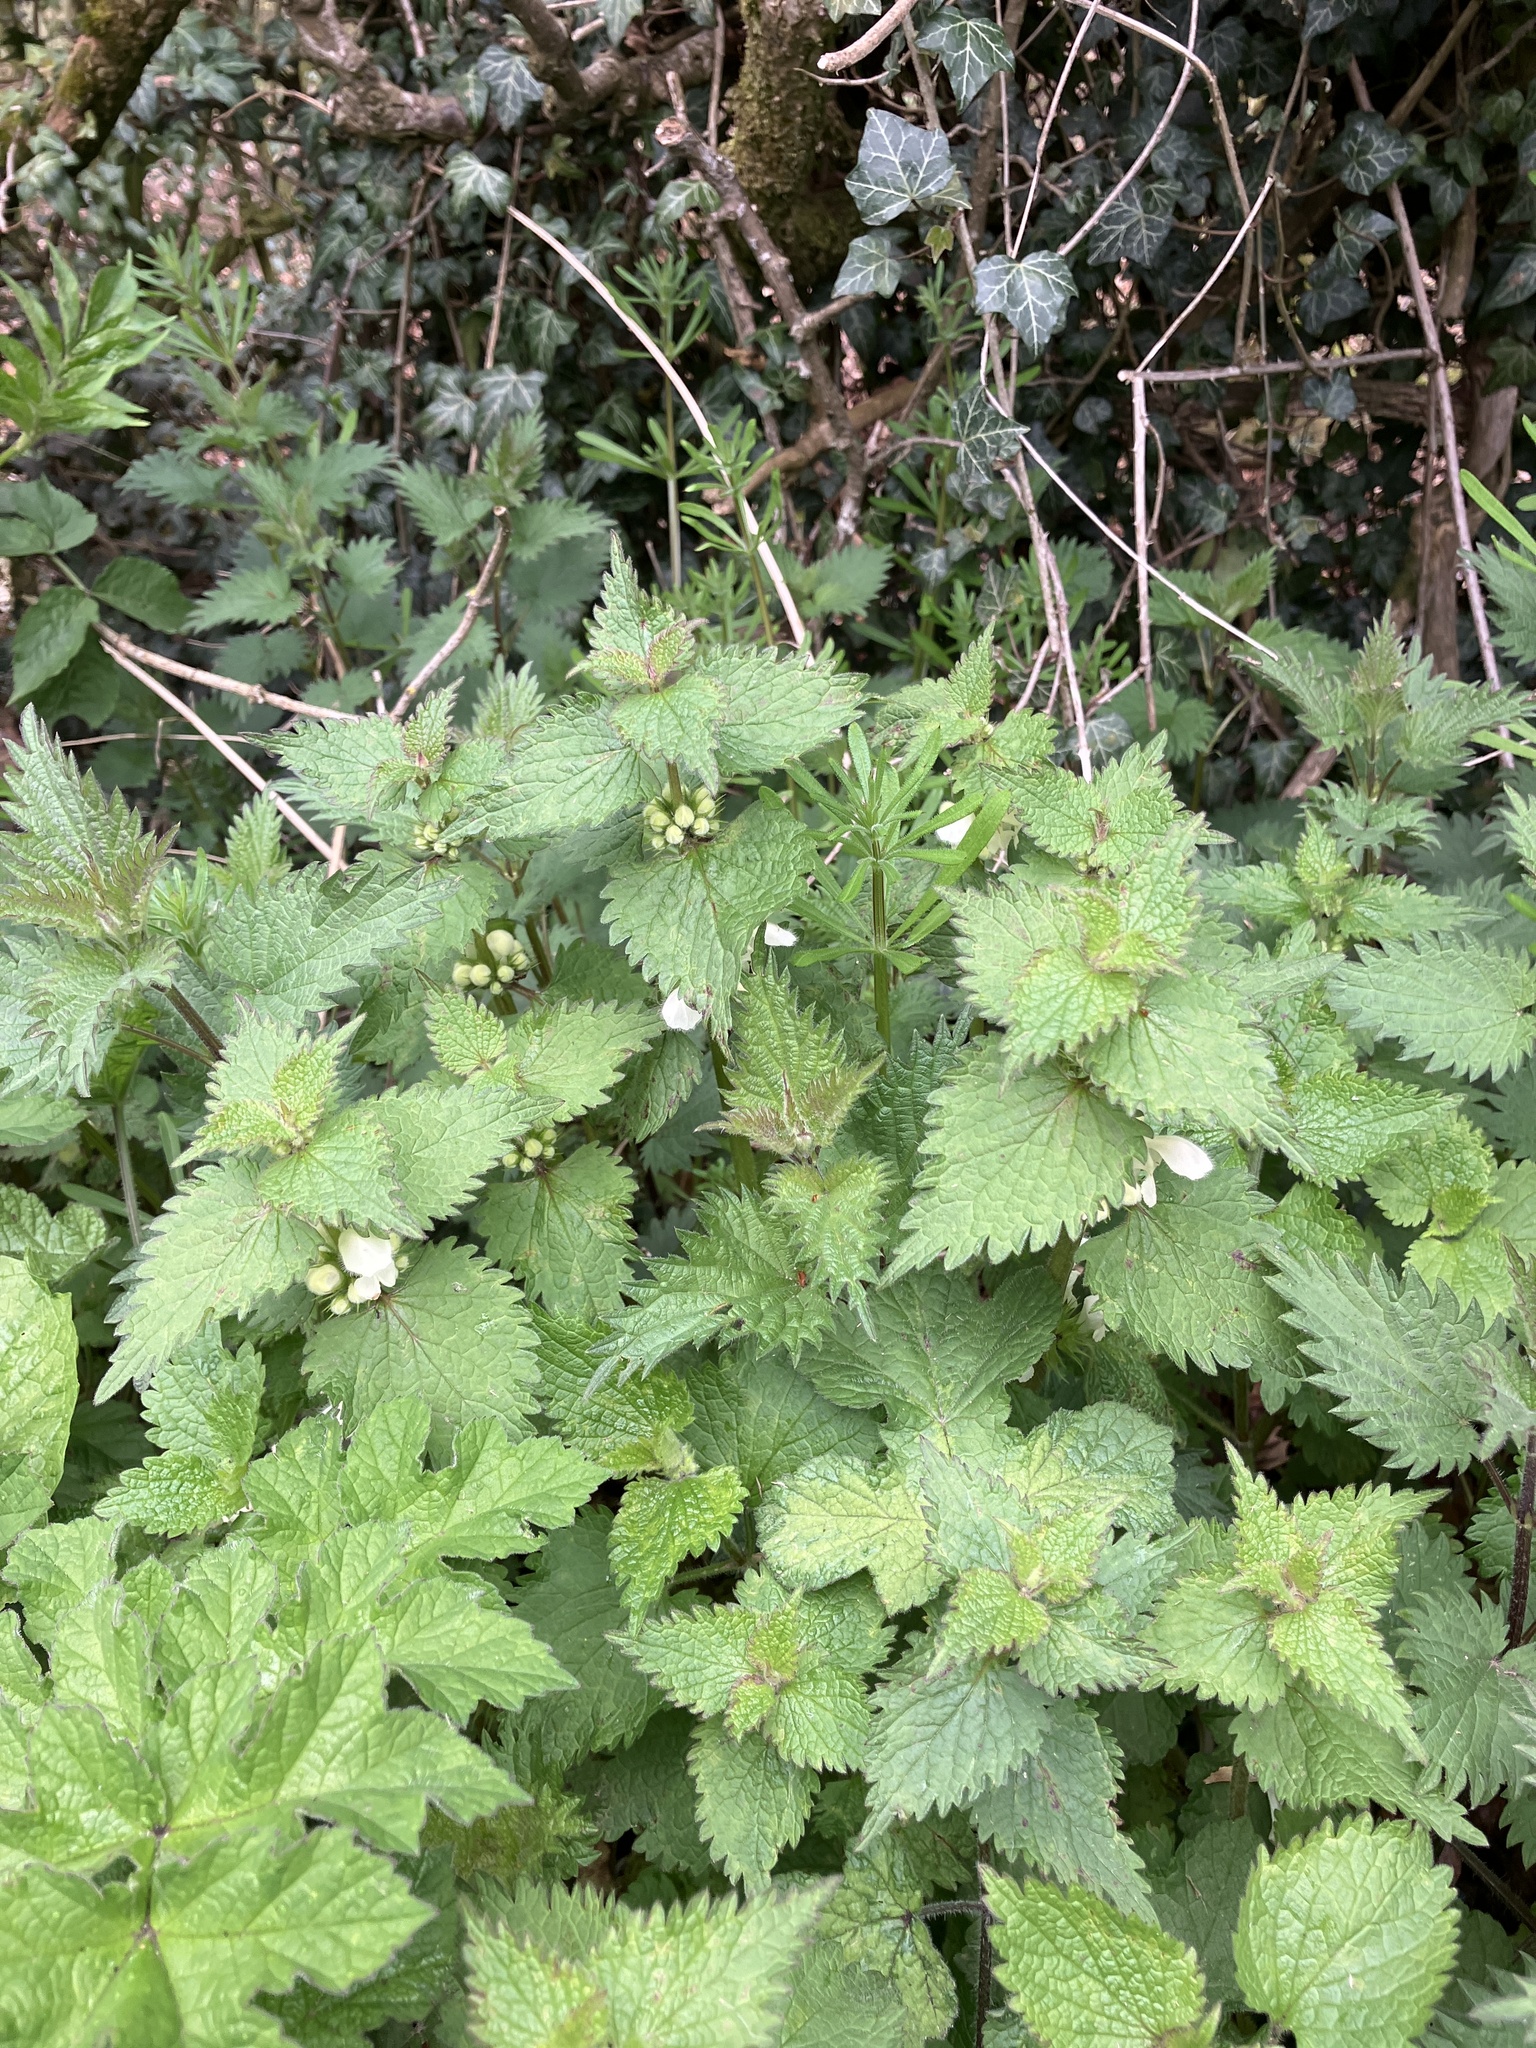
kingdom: Plantae
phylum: Tracheophyta
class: Magnoliopsida
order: Lamiales
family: Lamiaceae
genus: Lamium
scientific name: Lamium album
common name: White dead-nettle
